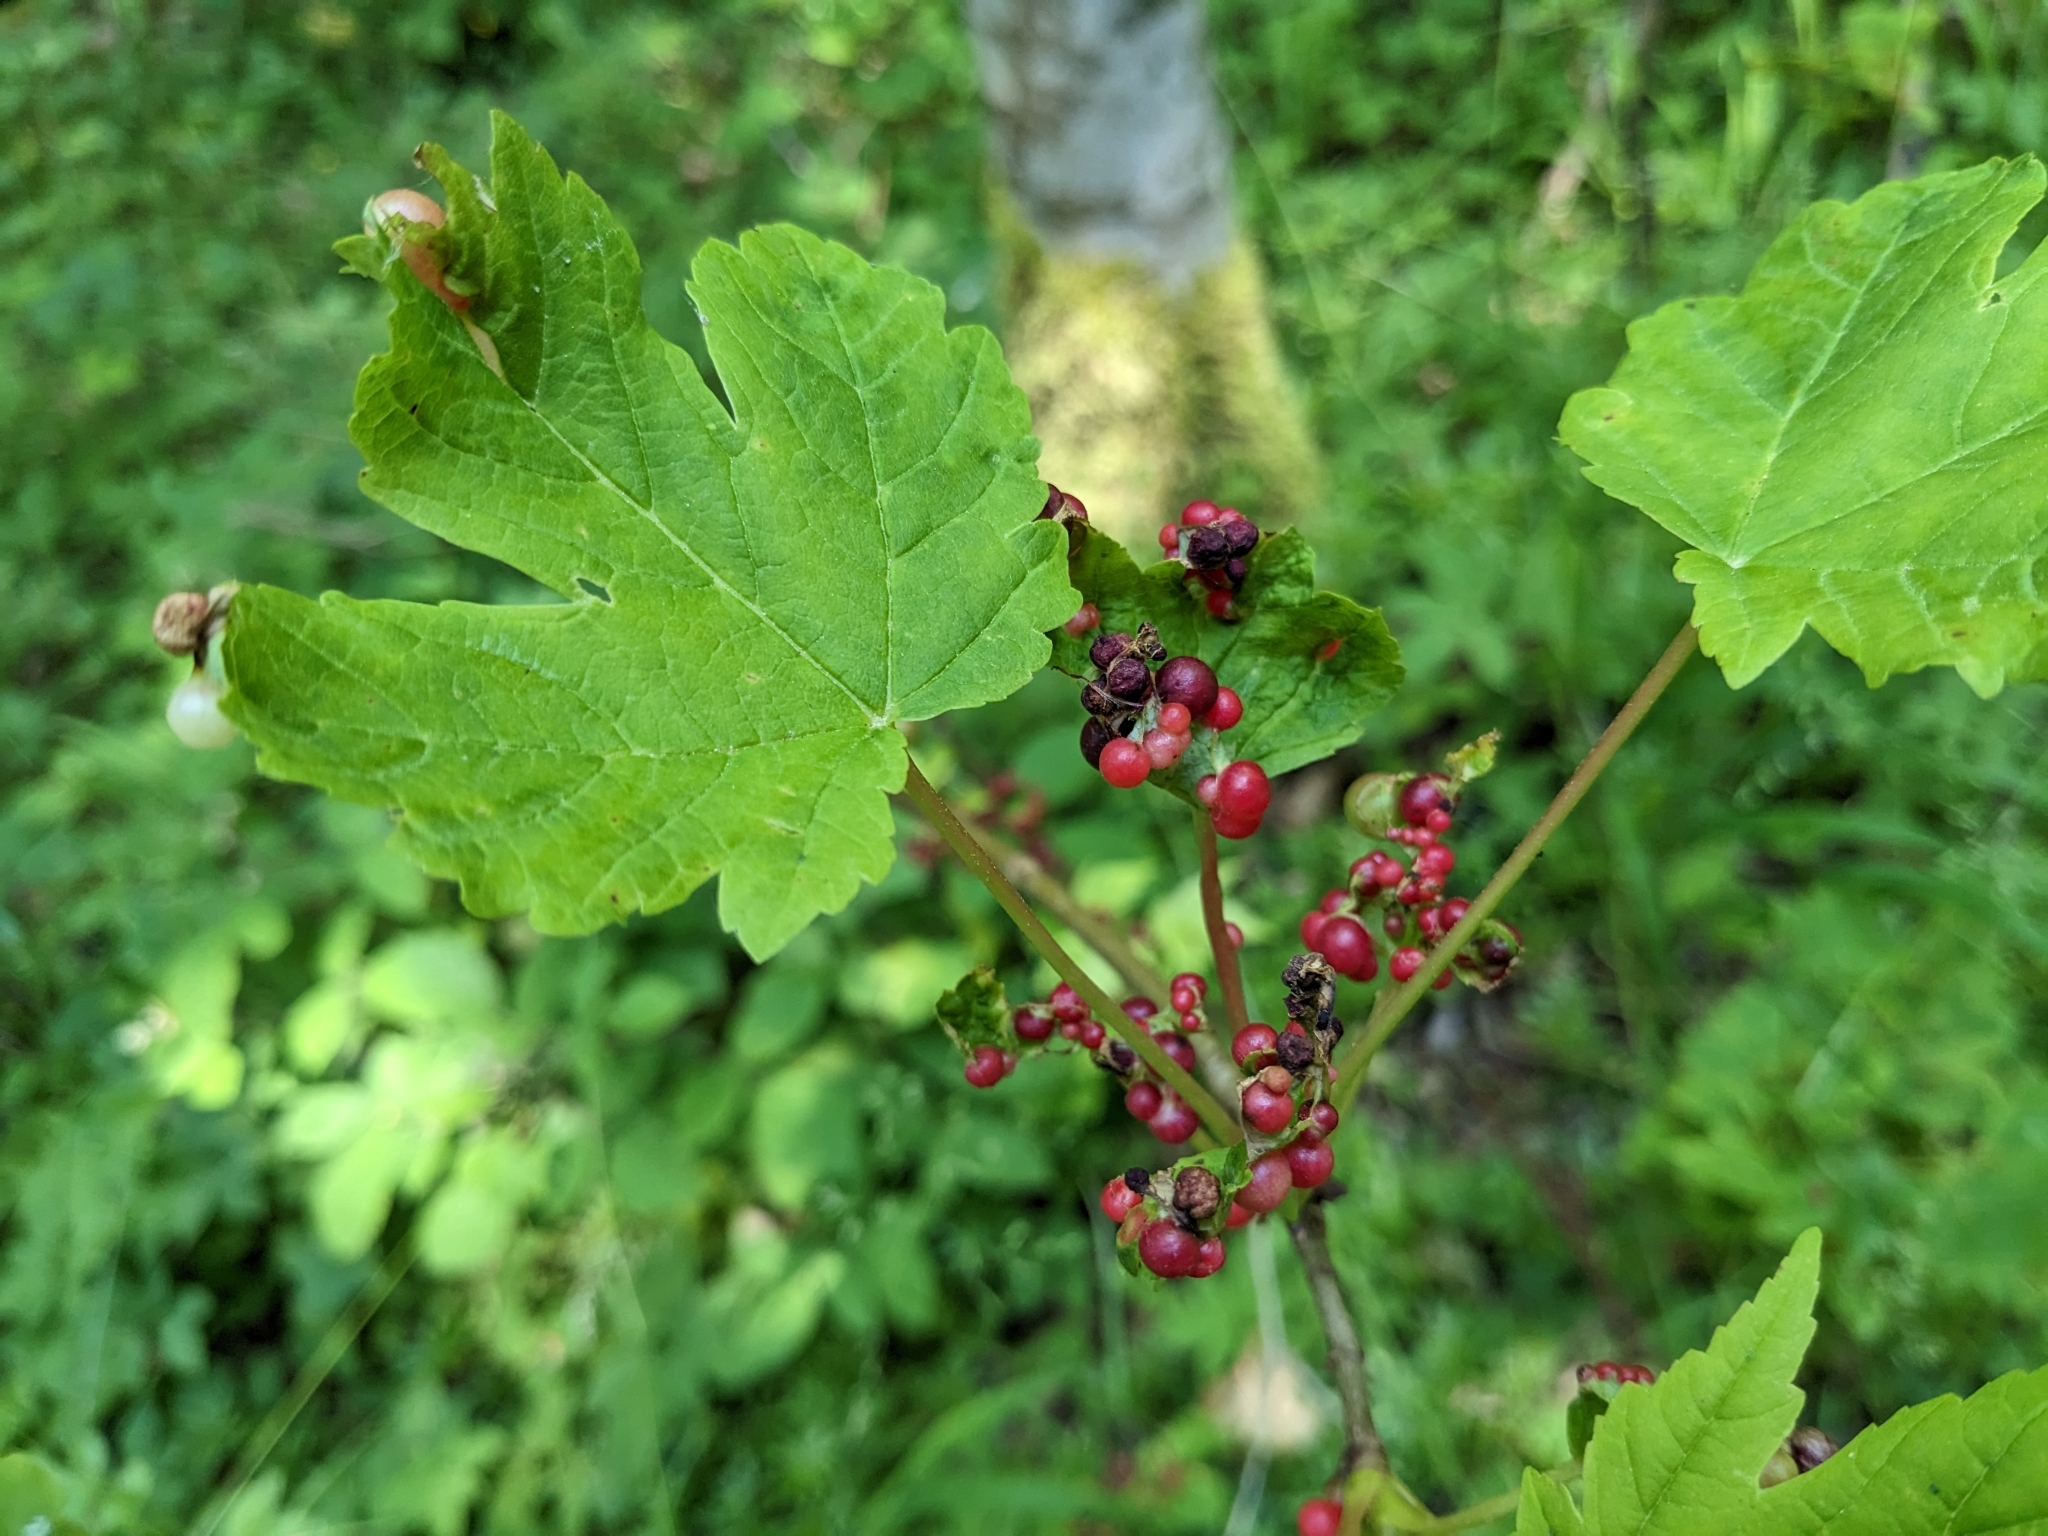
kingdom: Animalia
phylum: Arthropoda
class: Insecta
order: Hymenoptera
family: Cynipidae
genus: Pediaspis
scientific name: Pediaspis aceris
